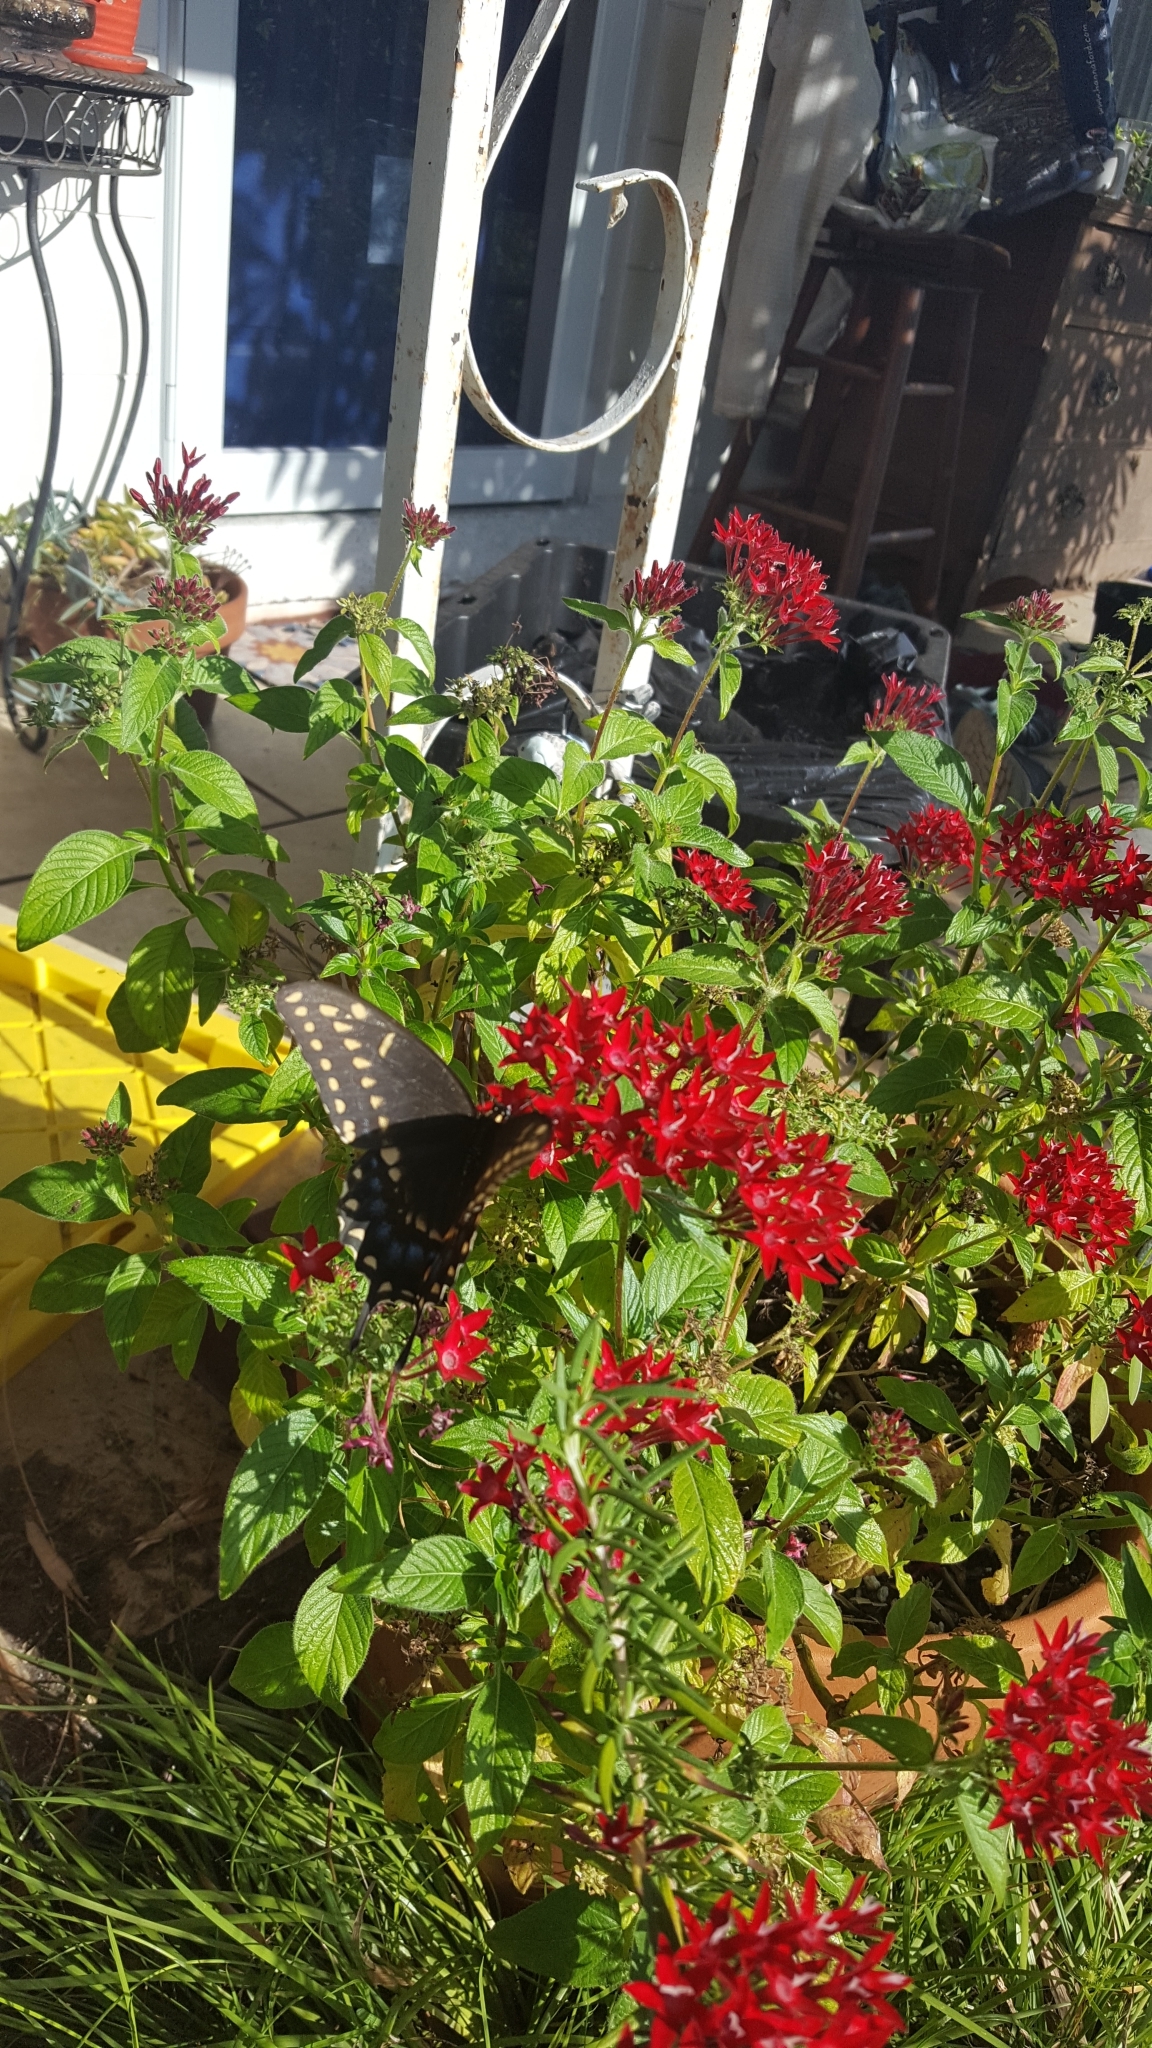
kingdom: Animalia
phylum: Arthropoda
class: Insecta
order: Lepidoptera
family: Papilionidae
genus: Papilio
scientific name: Papilio polyxenes
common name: Black swallowtail
